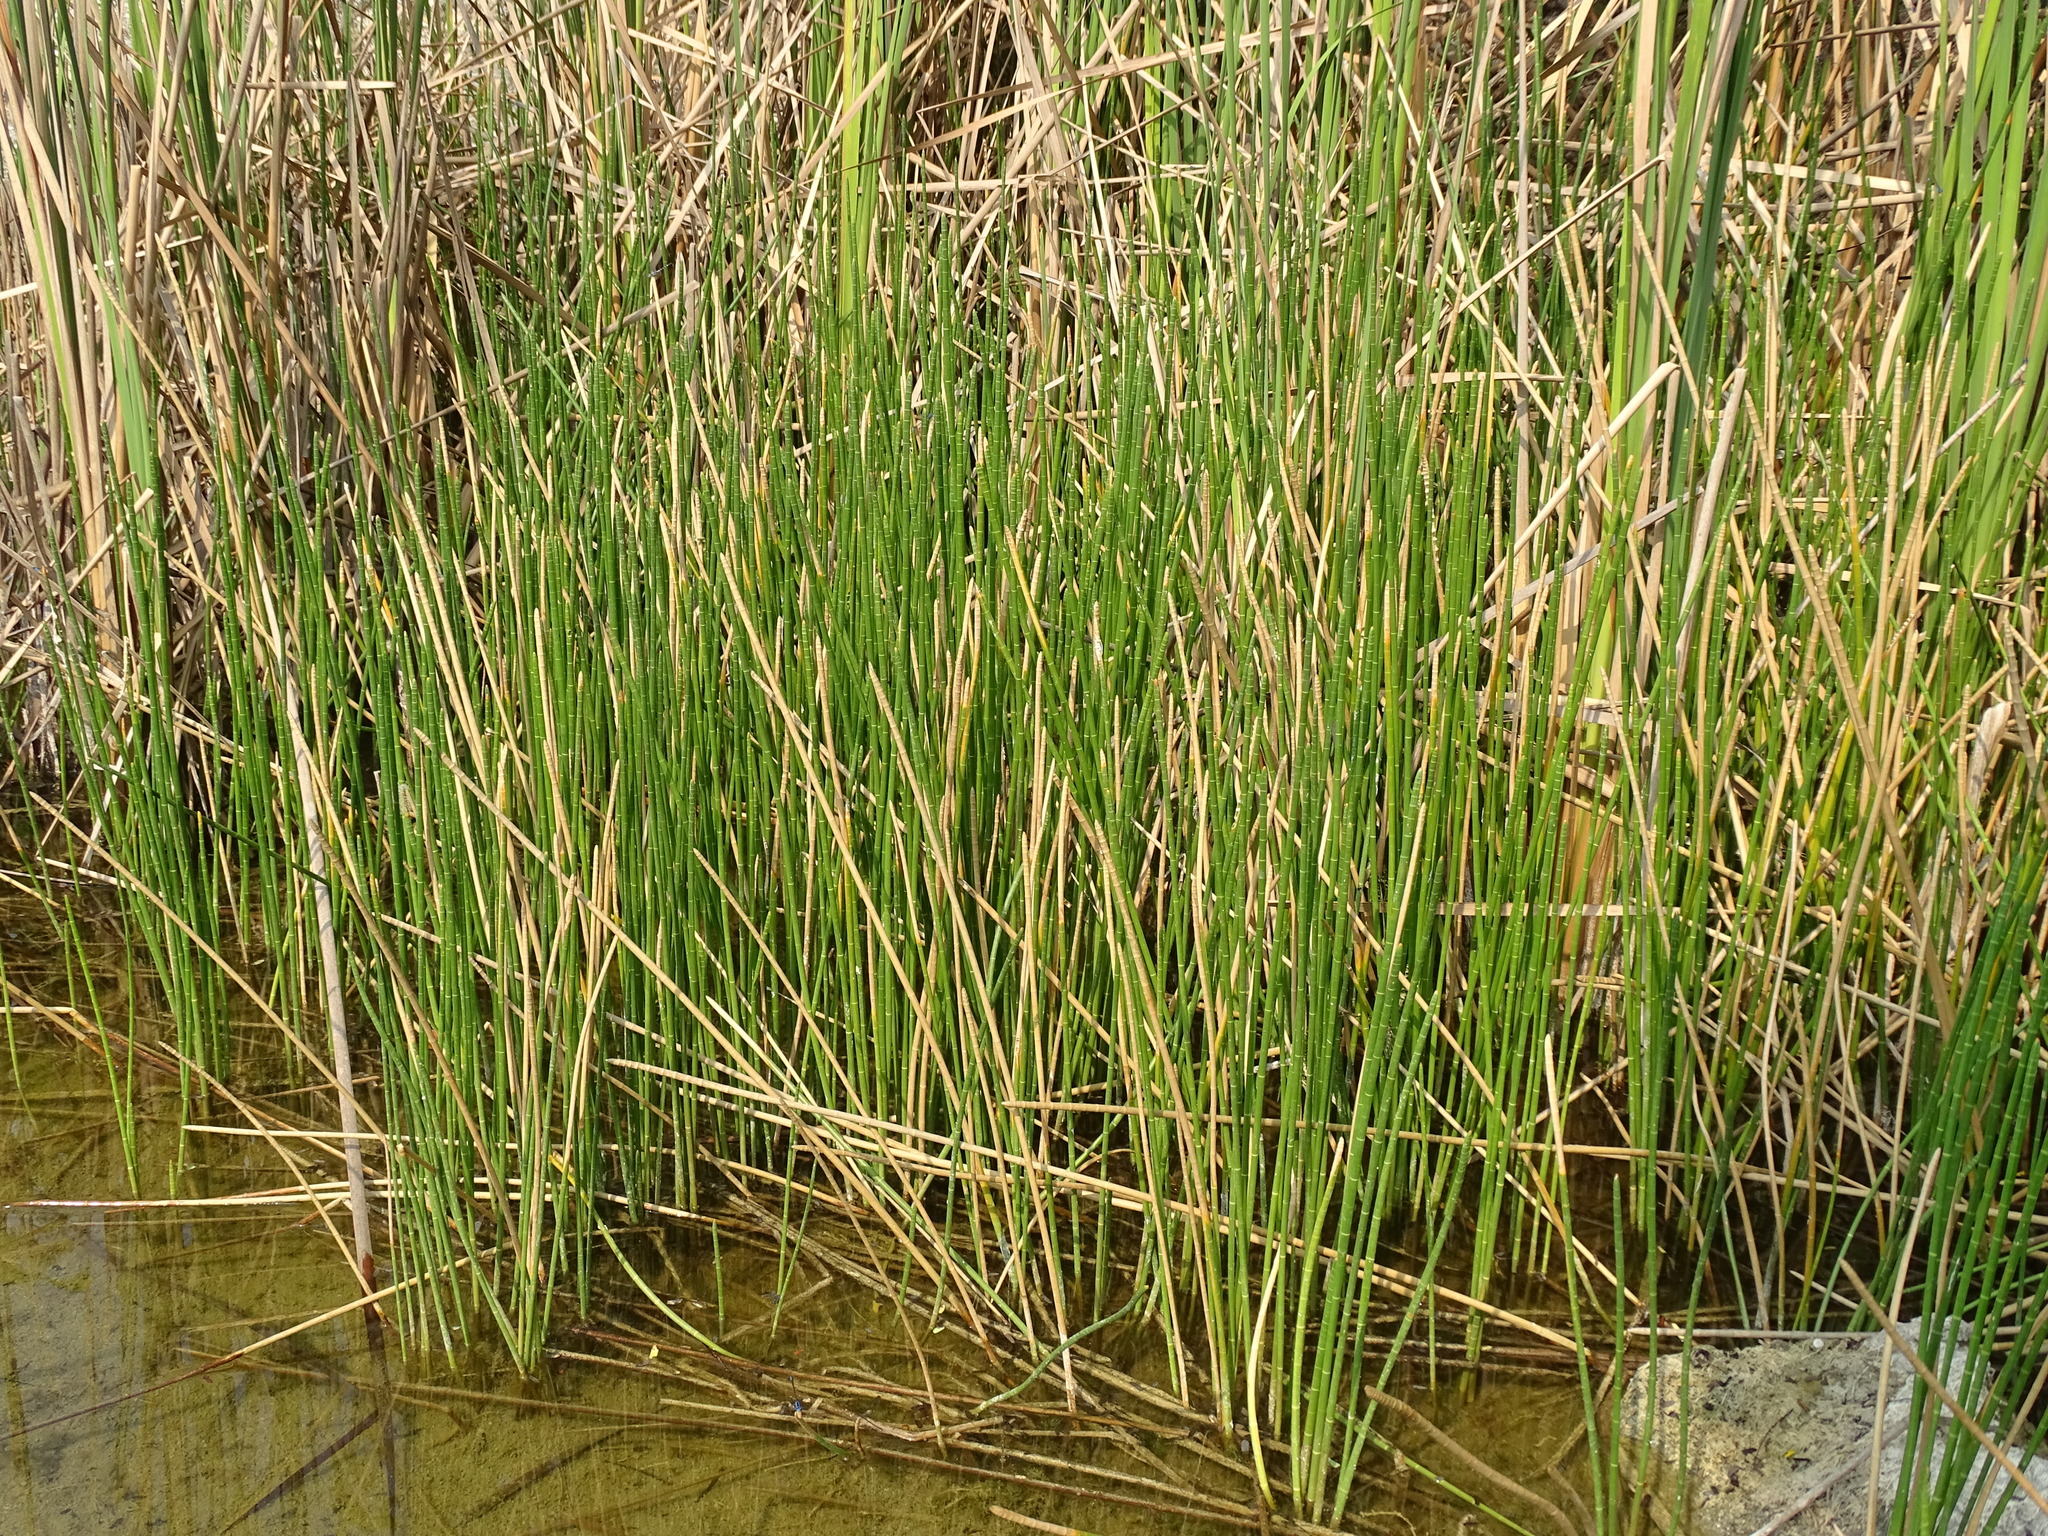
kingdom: Plantae
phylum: Tracheophyta
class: Liliopsida
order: Poales
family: Cyperaceae
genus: Eleocharis
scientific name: Eleocharis interstincta
